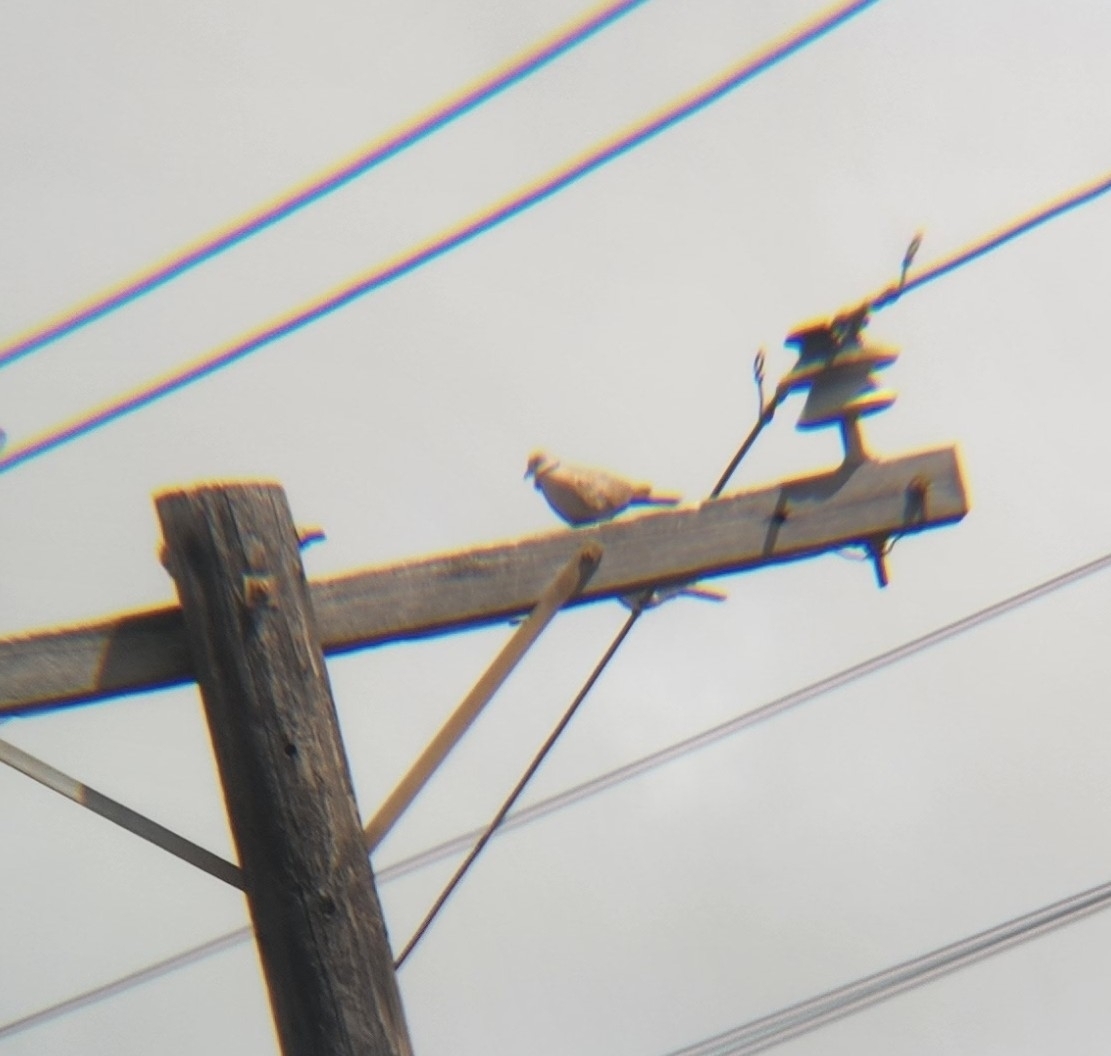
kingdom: Animalia
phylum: Chordata
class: Aves
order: Columbiformes
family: Columbidae
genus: Streptopelia
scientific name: Streptopelia decaocto
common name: Eurasian collared dove
